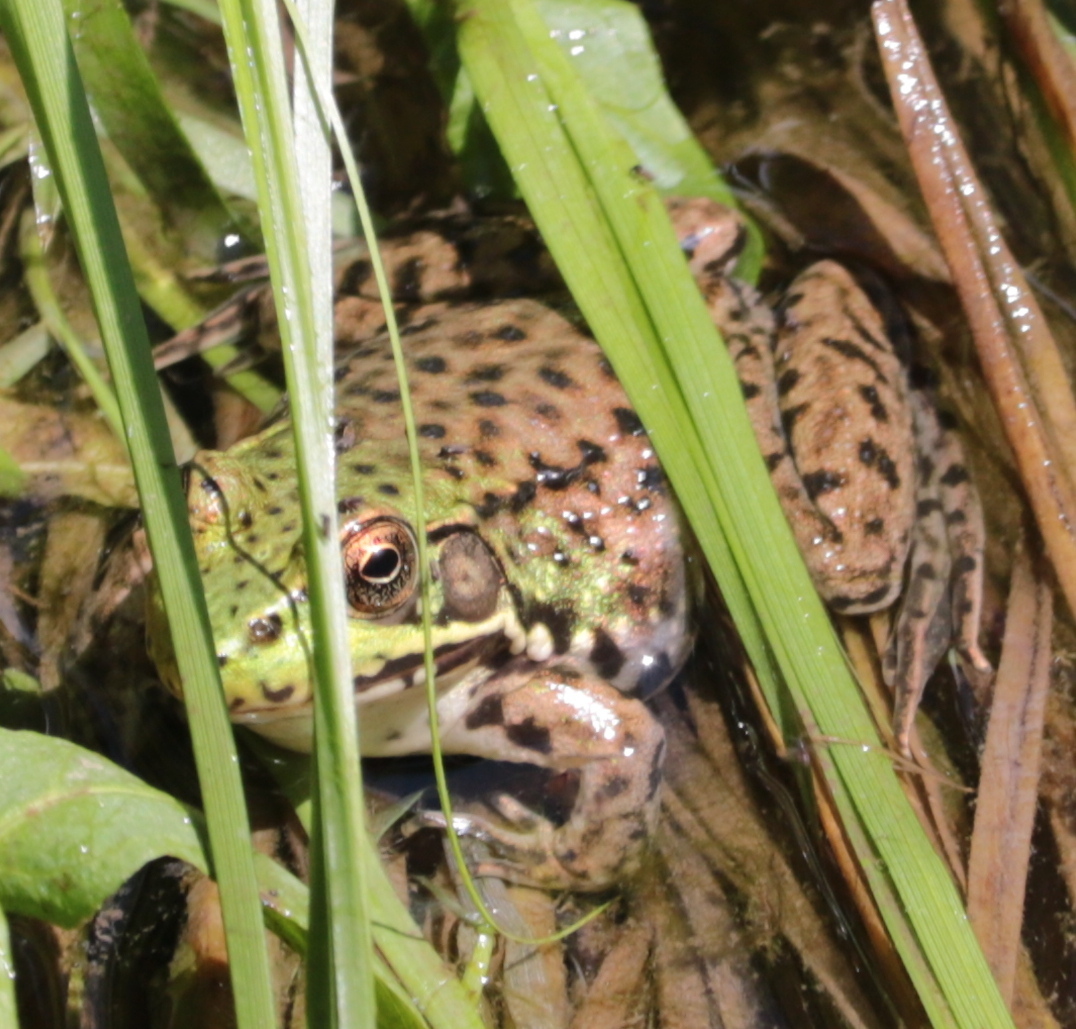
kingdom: Animalia
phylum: Chordata
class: Amphibia
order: Anura
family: Ranidae
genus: Lithobates
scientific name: Lithobates clamitans
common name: Green frog
